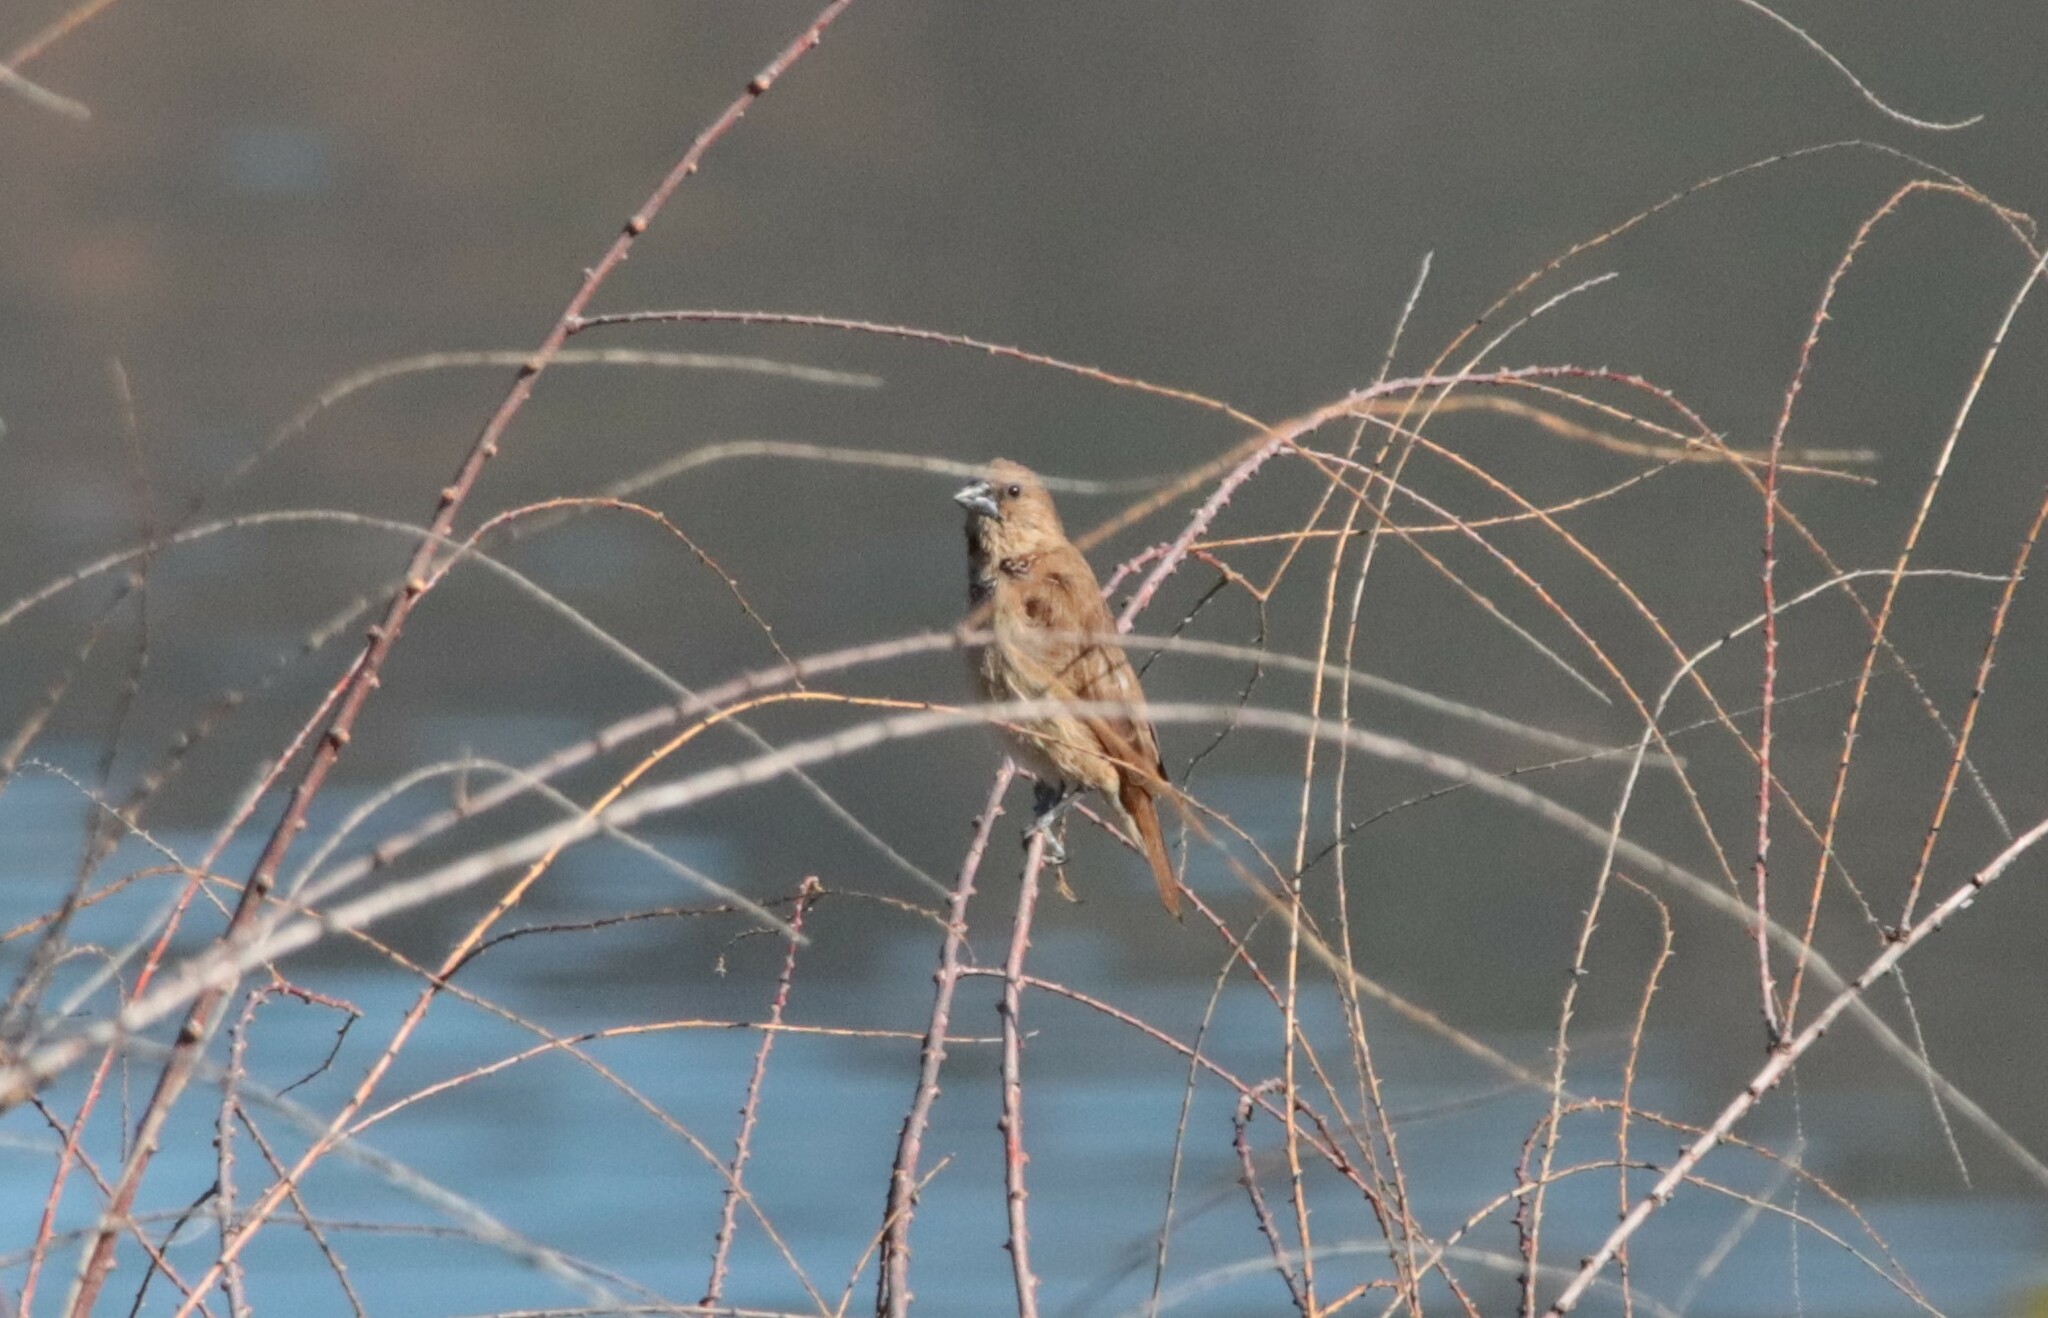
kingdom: Animalia
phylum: Chordata
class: Aves
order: Passeriformes
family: Estrildidae
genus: Lonchura
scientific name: Lonchura punctulata
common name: Scaly-breasted munia
